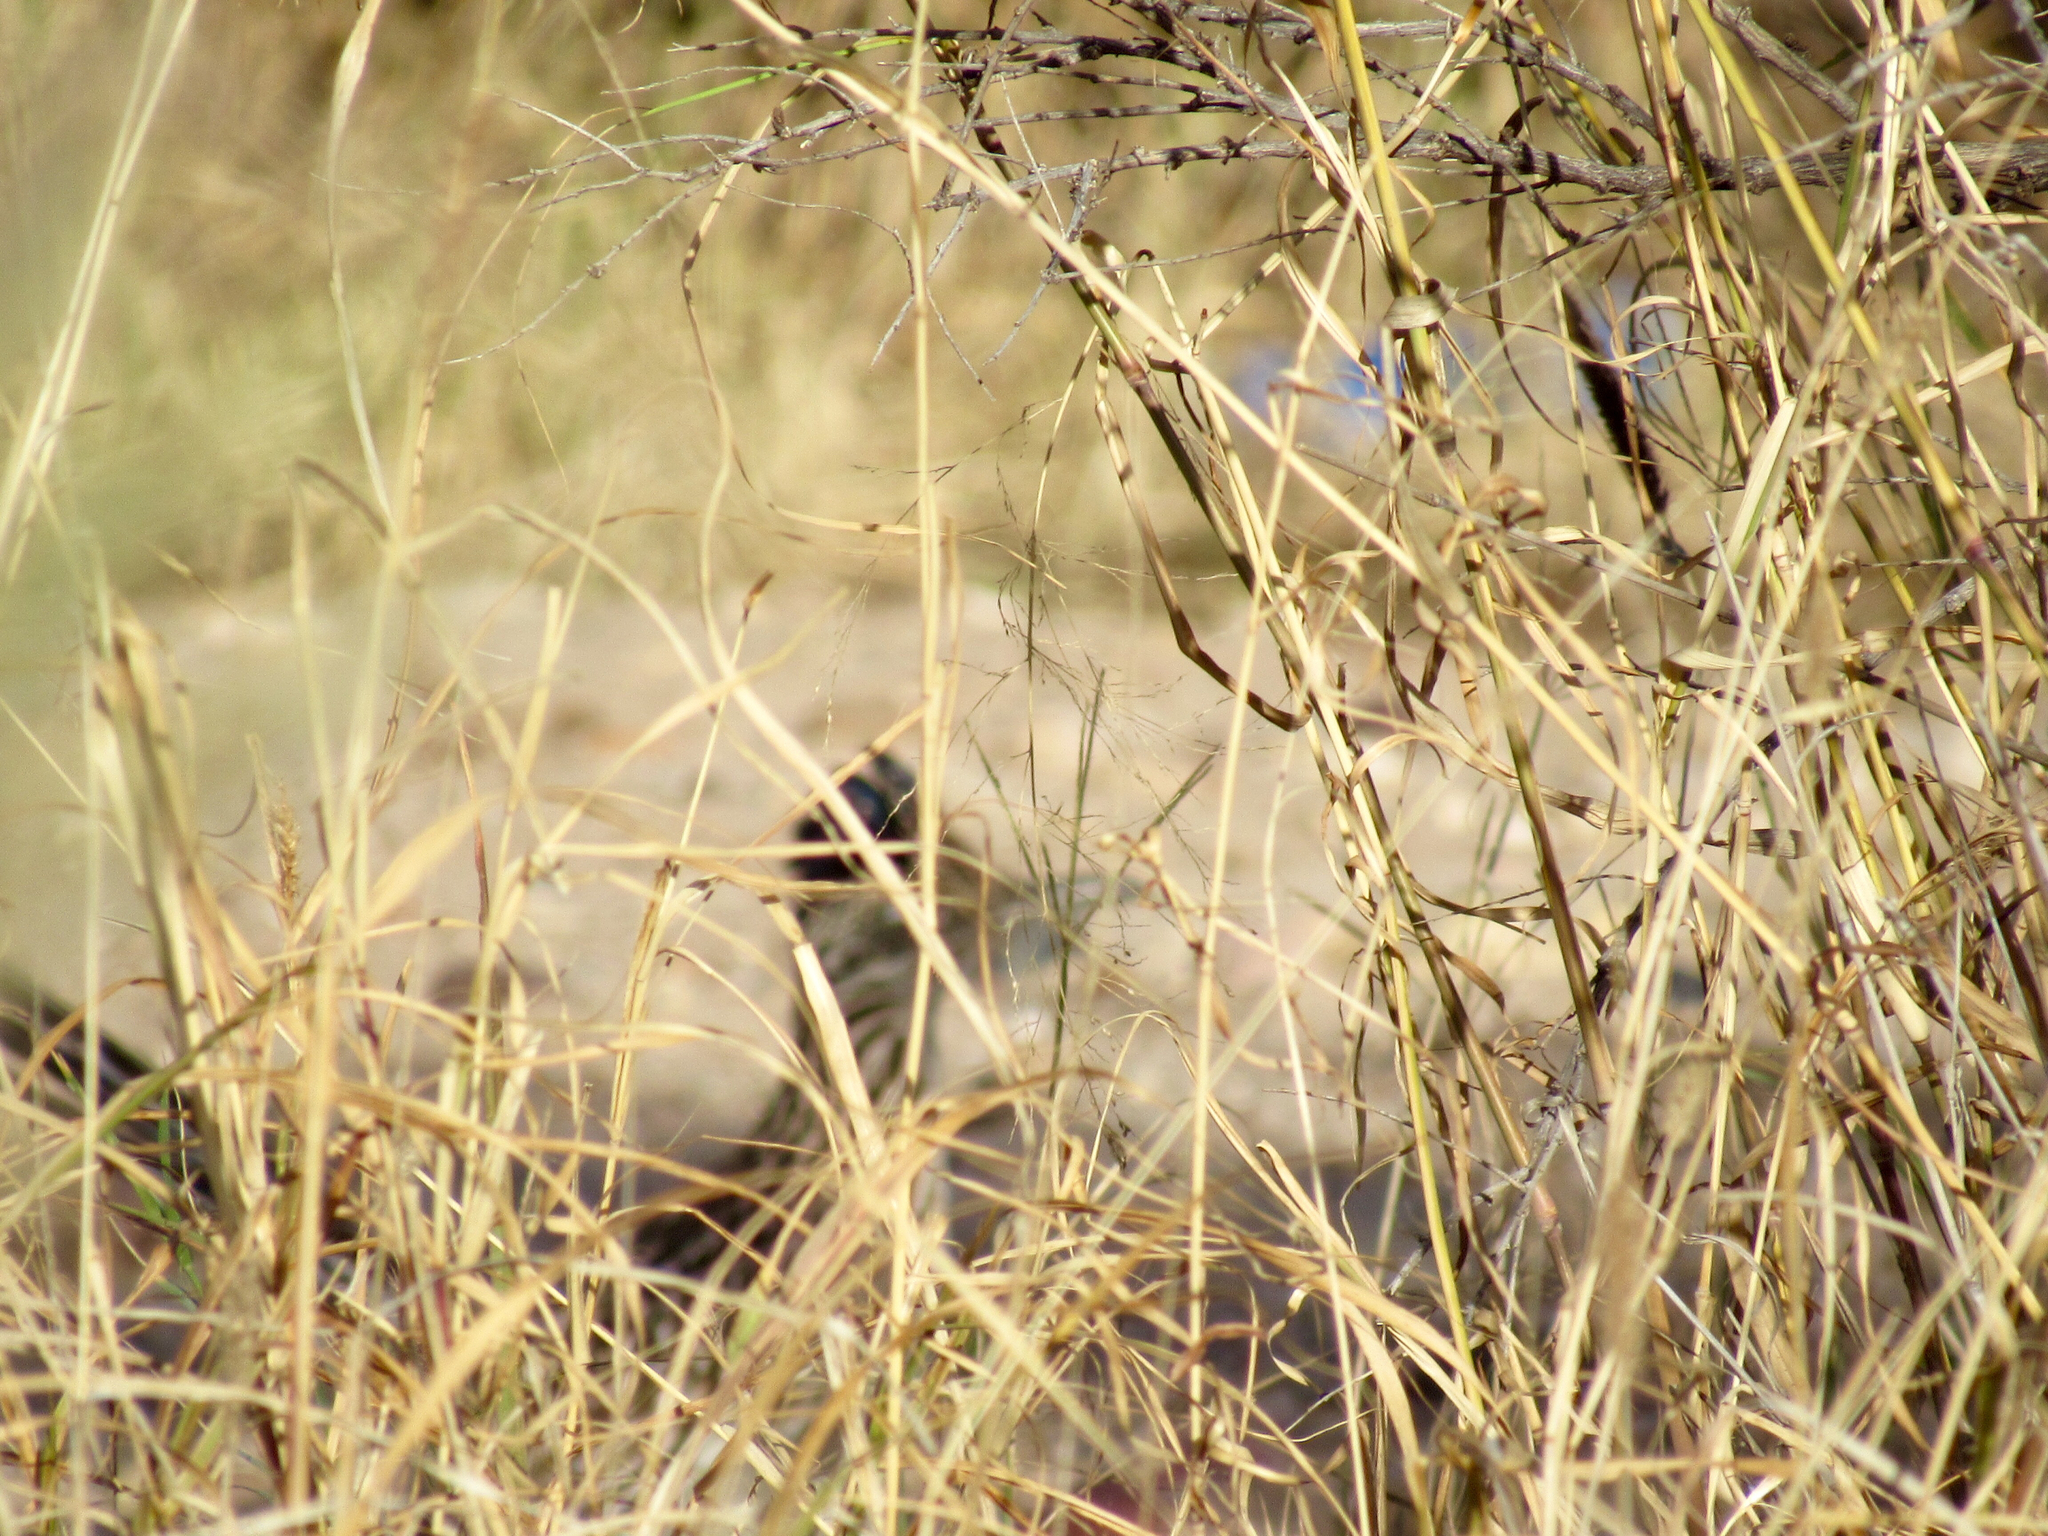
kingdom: Animalia
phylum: Chordata
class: Aves
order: Cuculiformes
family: Cuculidae
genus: Geococcyx
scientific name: Geococcyx californianus
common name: Greater roadrunner
